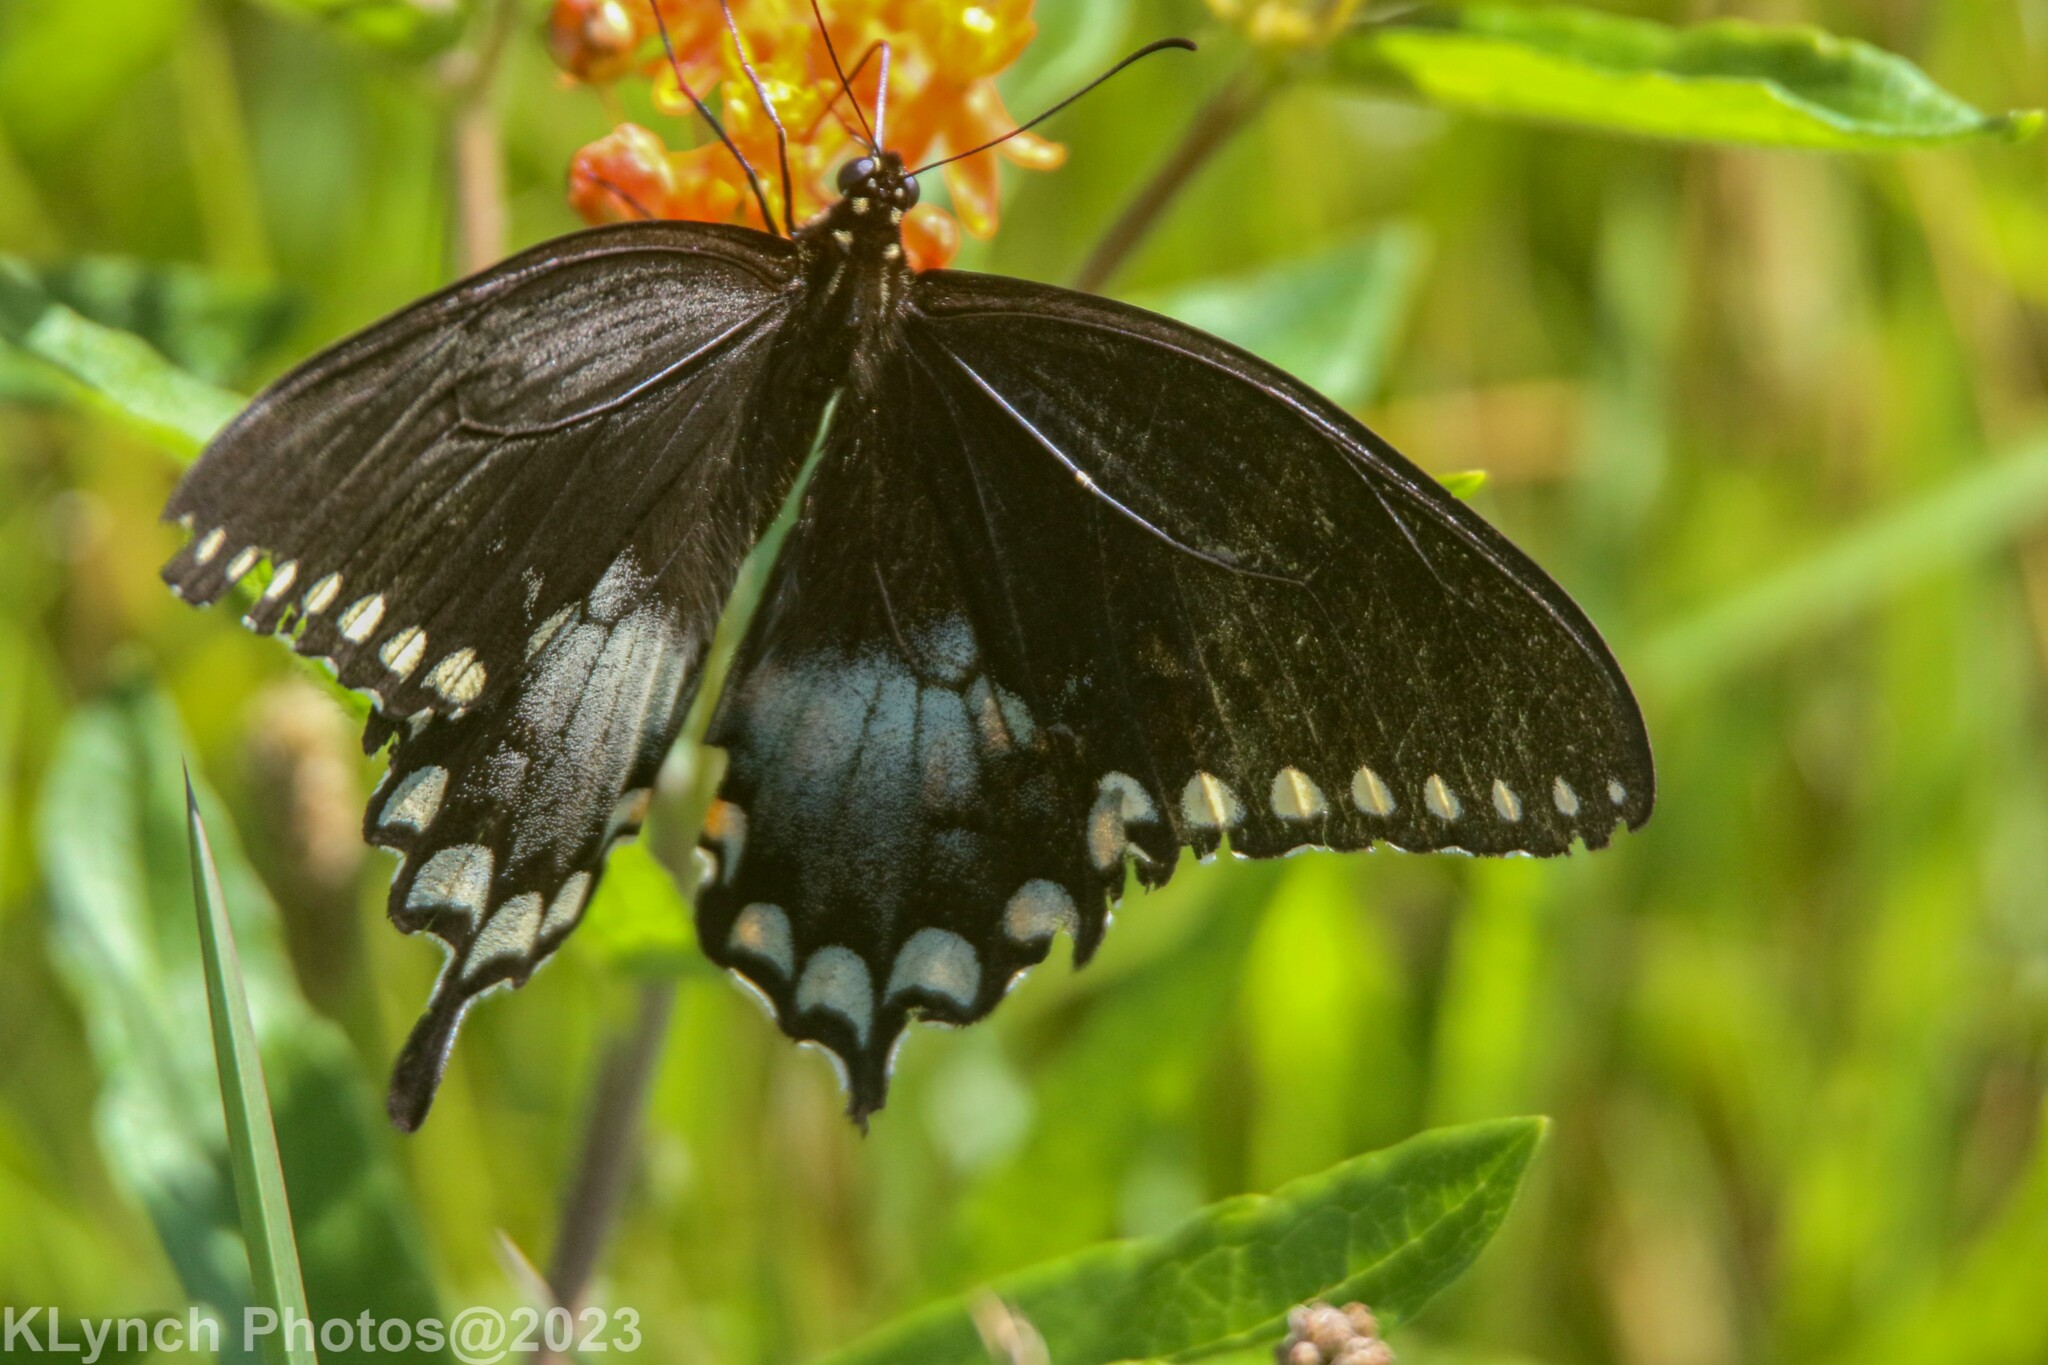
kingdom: Animalia
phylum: Arthropoda
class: Insecta
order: Lepidoptera
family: Papilionidae
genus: Papilio
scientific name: Papilio troilus
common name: Spicebush swallowtail
